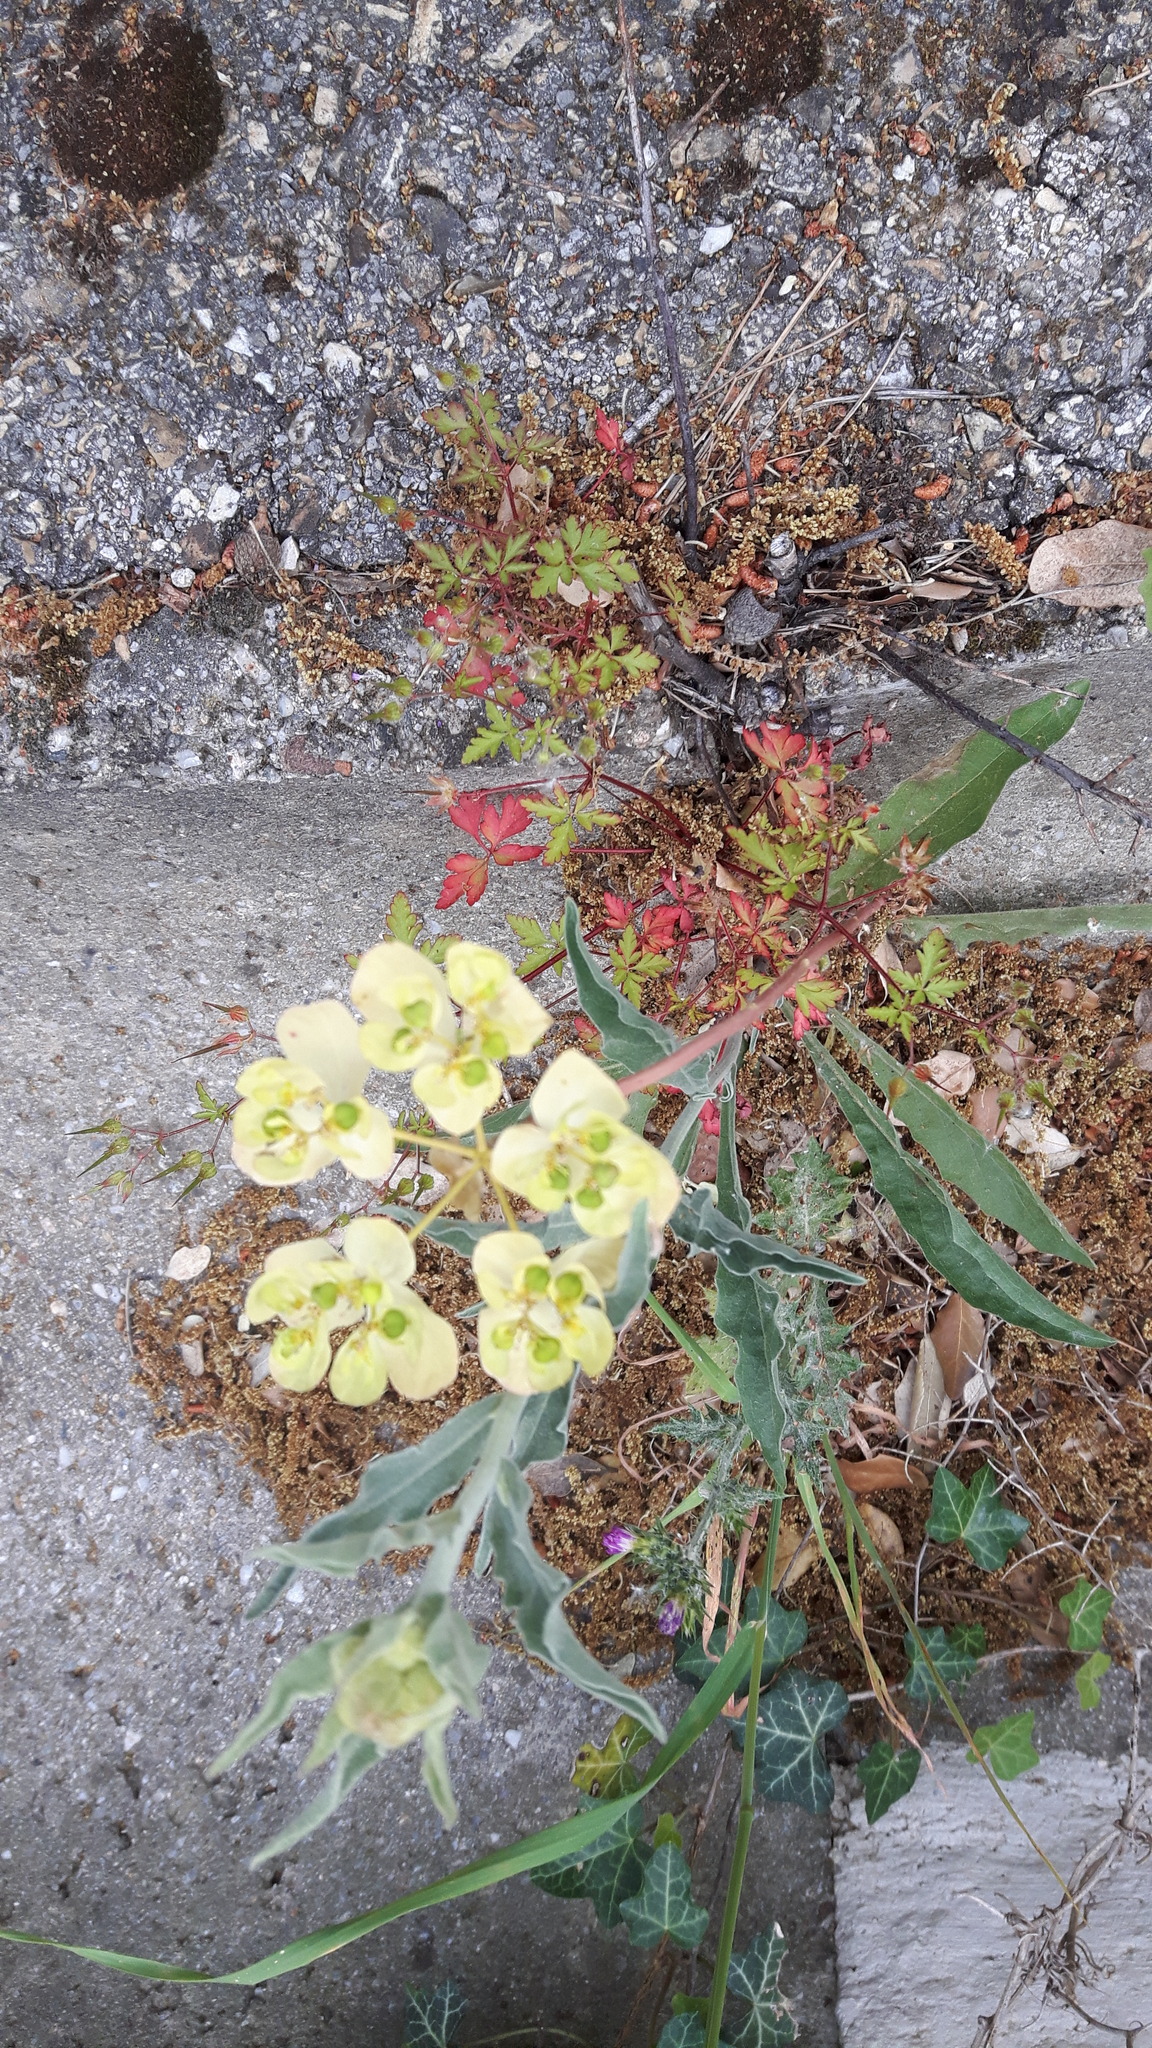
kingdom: Plantae
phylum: Tracheophyta
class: Magnoliopsida
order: Malpighiales
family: Euphorbiaceae
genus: Euphorbia
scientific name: Euphorbia helioscopia
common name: Sun spurge
